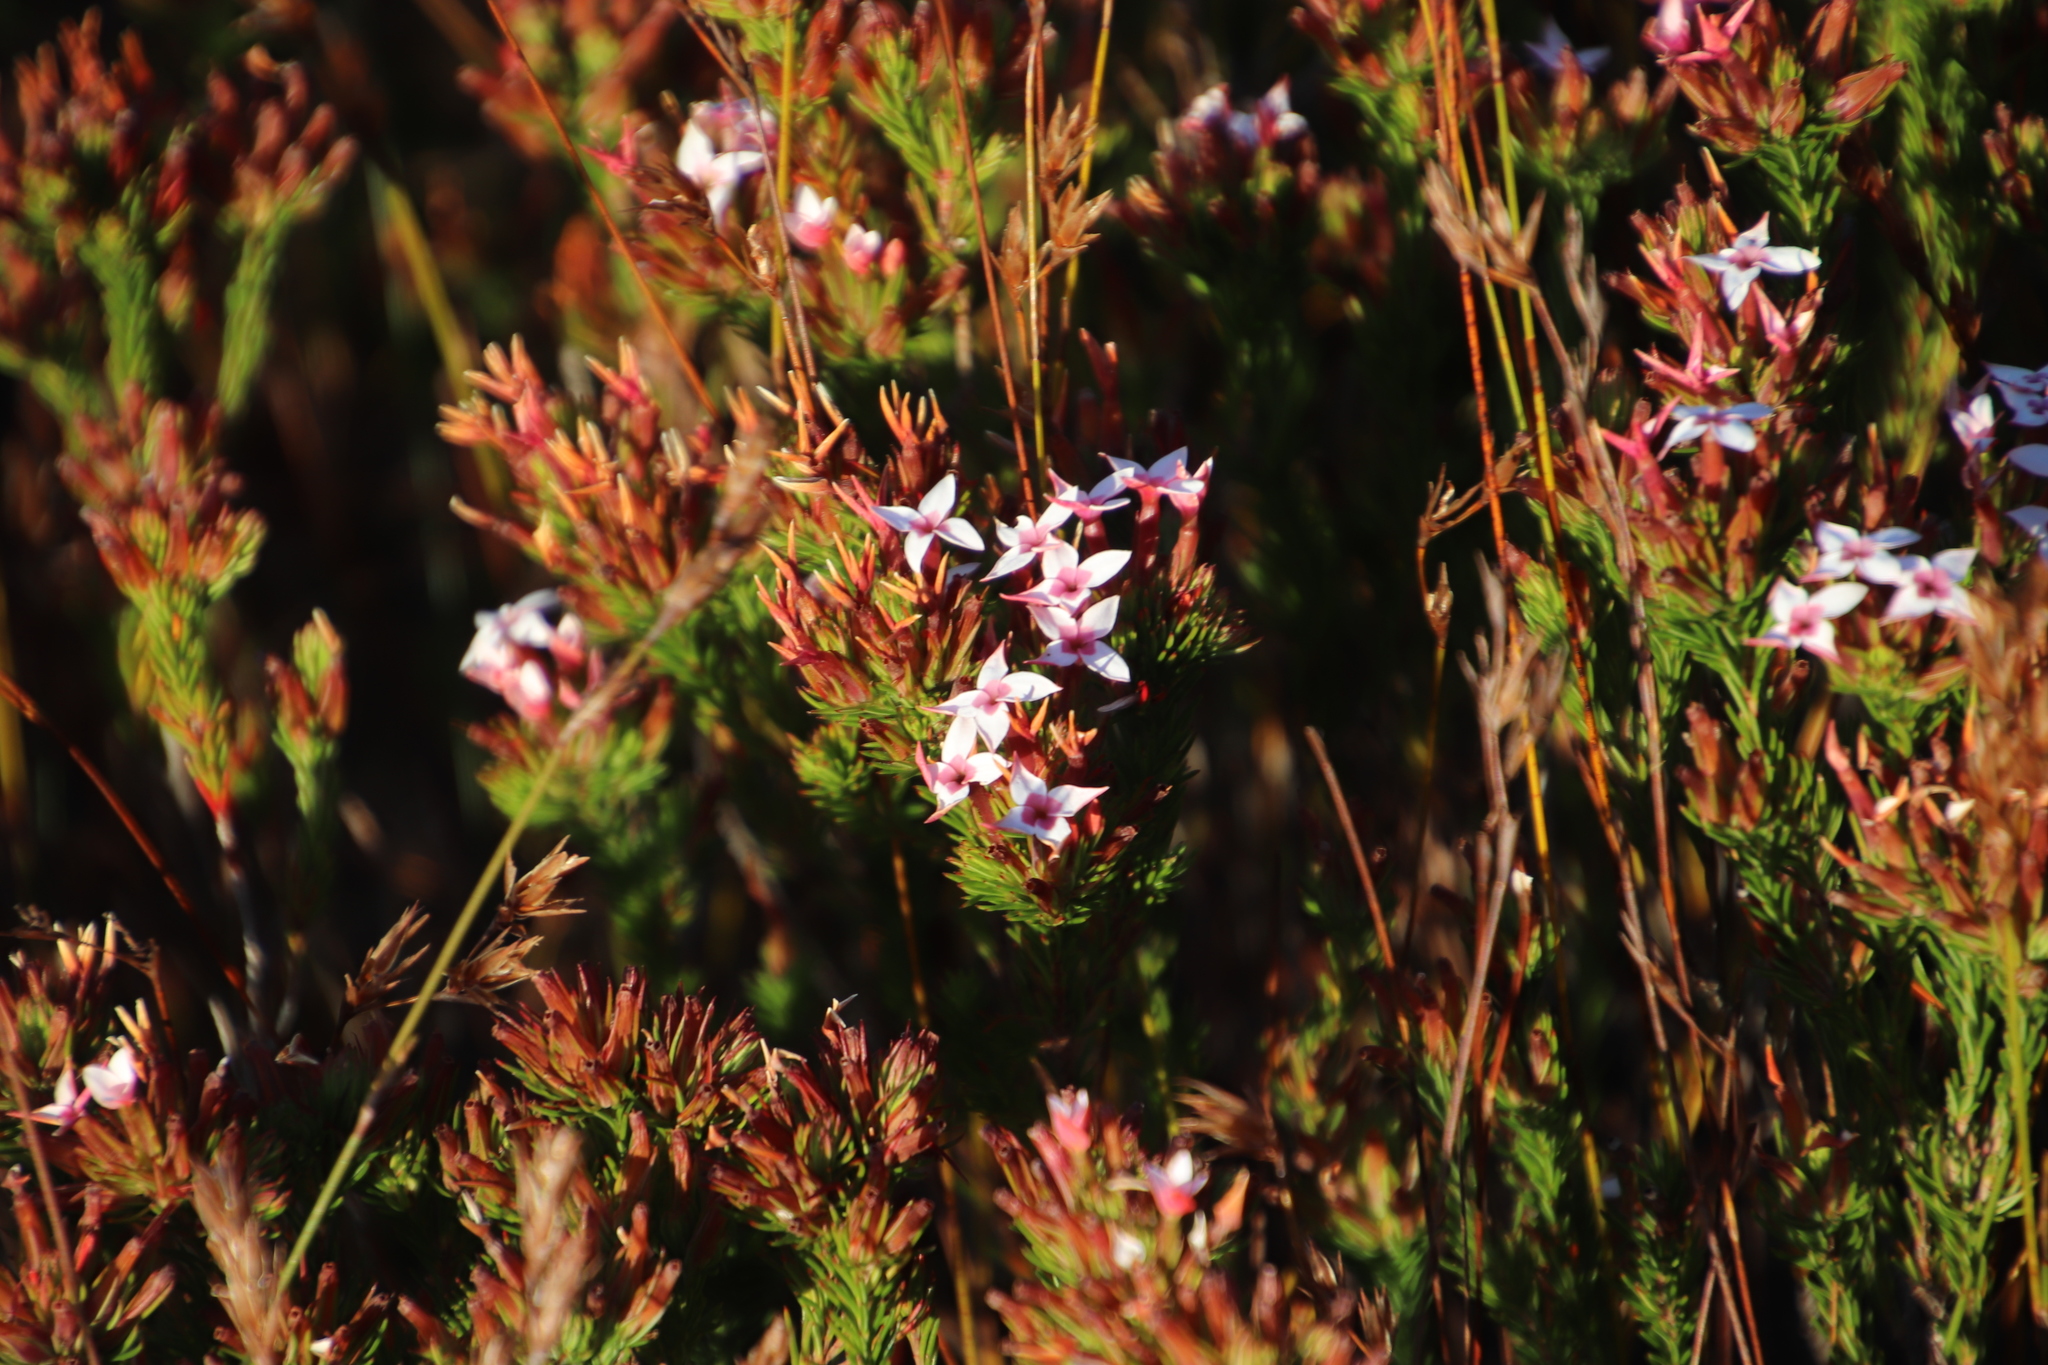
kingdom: Plantae
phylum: Tracheophyta
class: Magnoliopsida
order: Ericales
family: Ericaceae
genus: Erica
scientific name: Erica fastigiata
